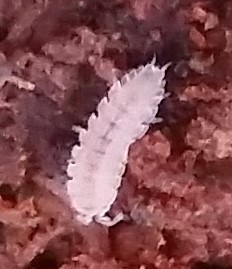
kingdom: Animalia
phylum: Arthropoda
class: Malacostraca
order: Isopoda
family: Trichoniscidae
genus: Haplophthalmus
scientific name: Haplophthalmus danicus
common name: Pillbug
